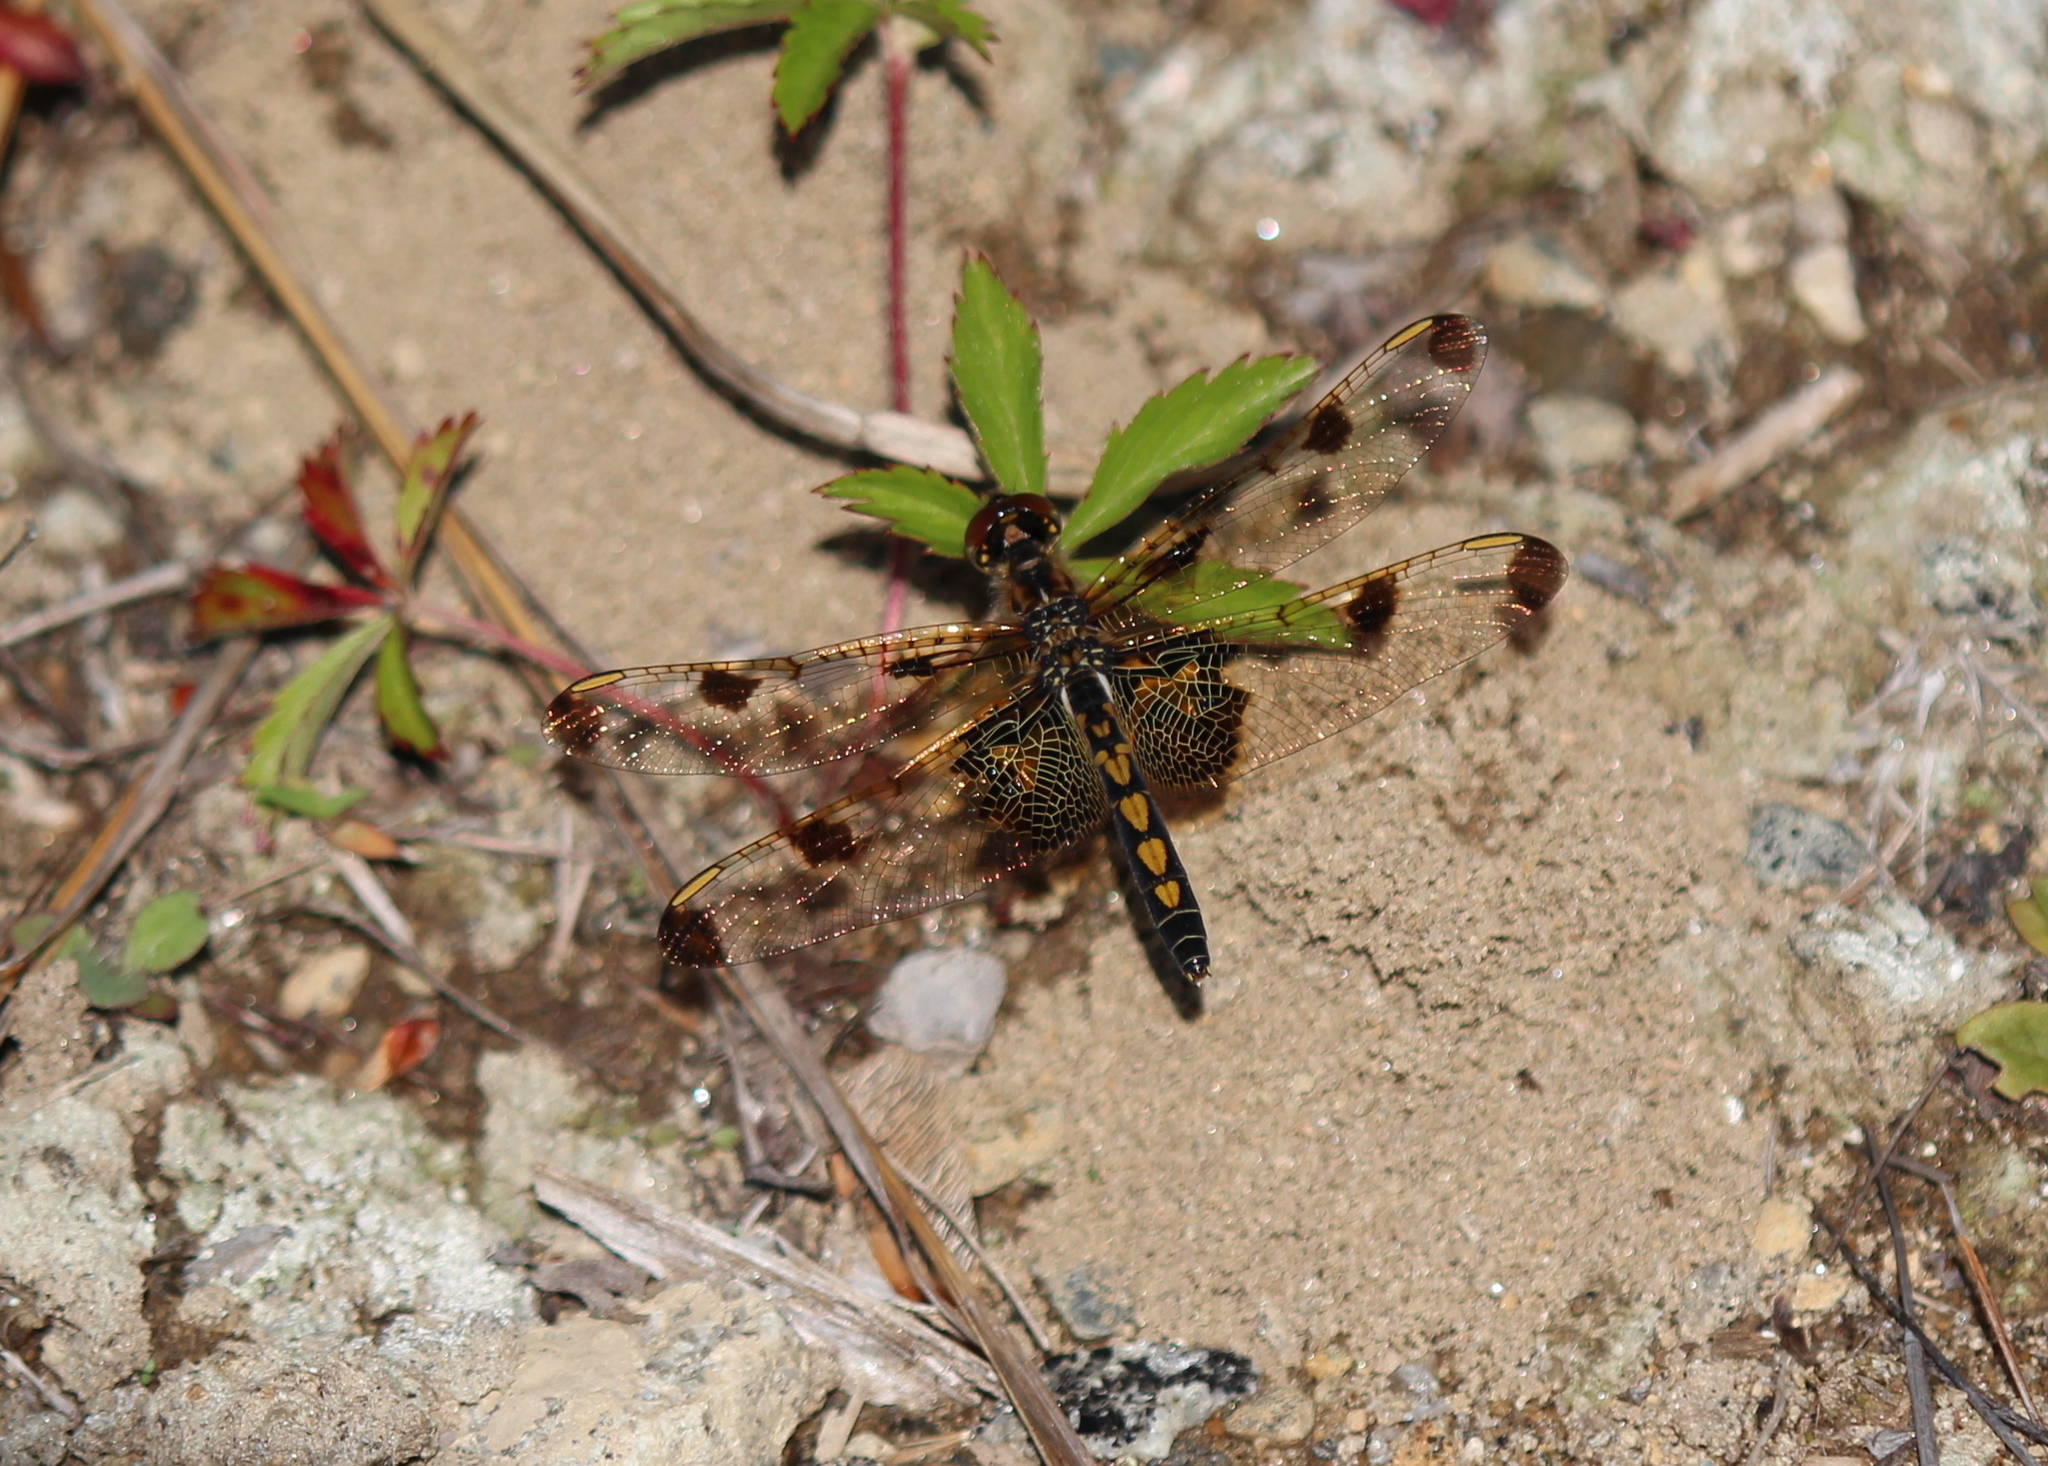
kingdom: Animalia
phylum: Arthropoda
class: Insecta
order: Odonata
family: Libellulidae
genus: Celithemis
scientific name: Celithemis elisa
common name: Calico pennant
